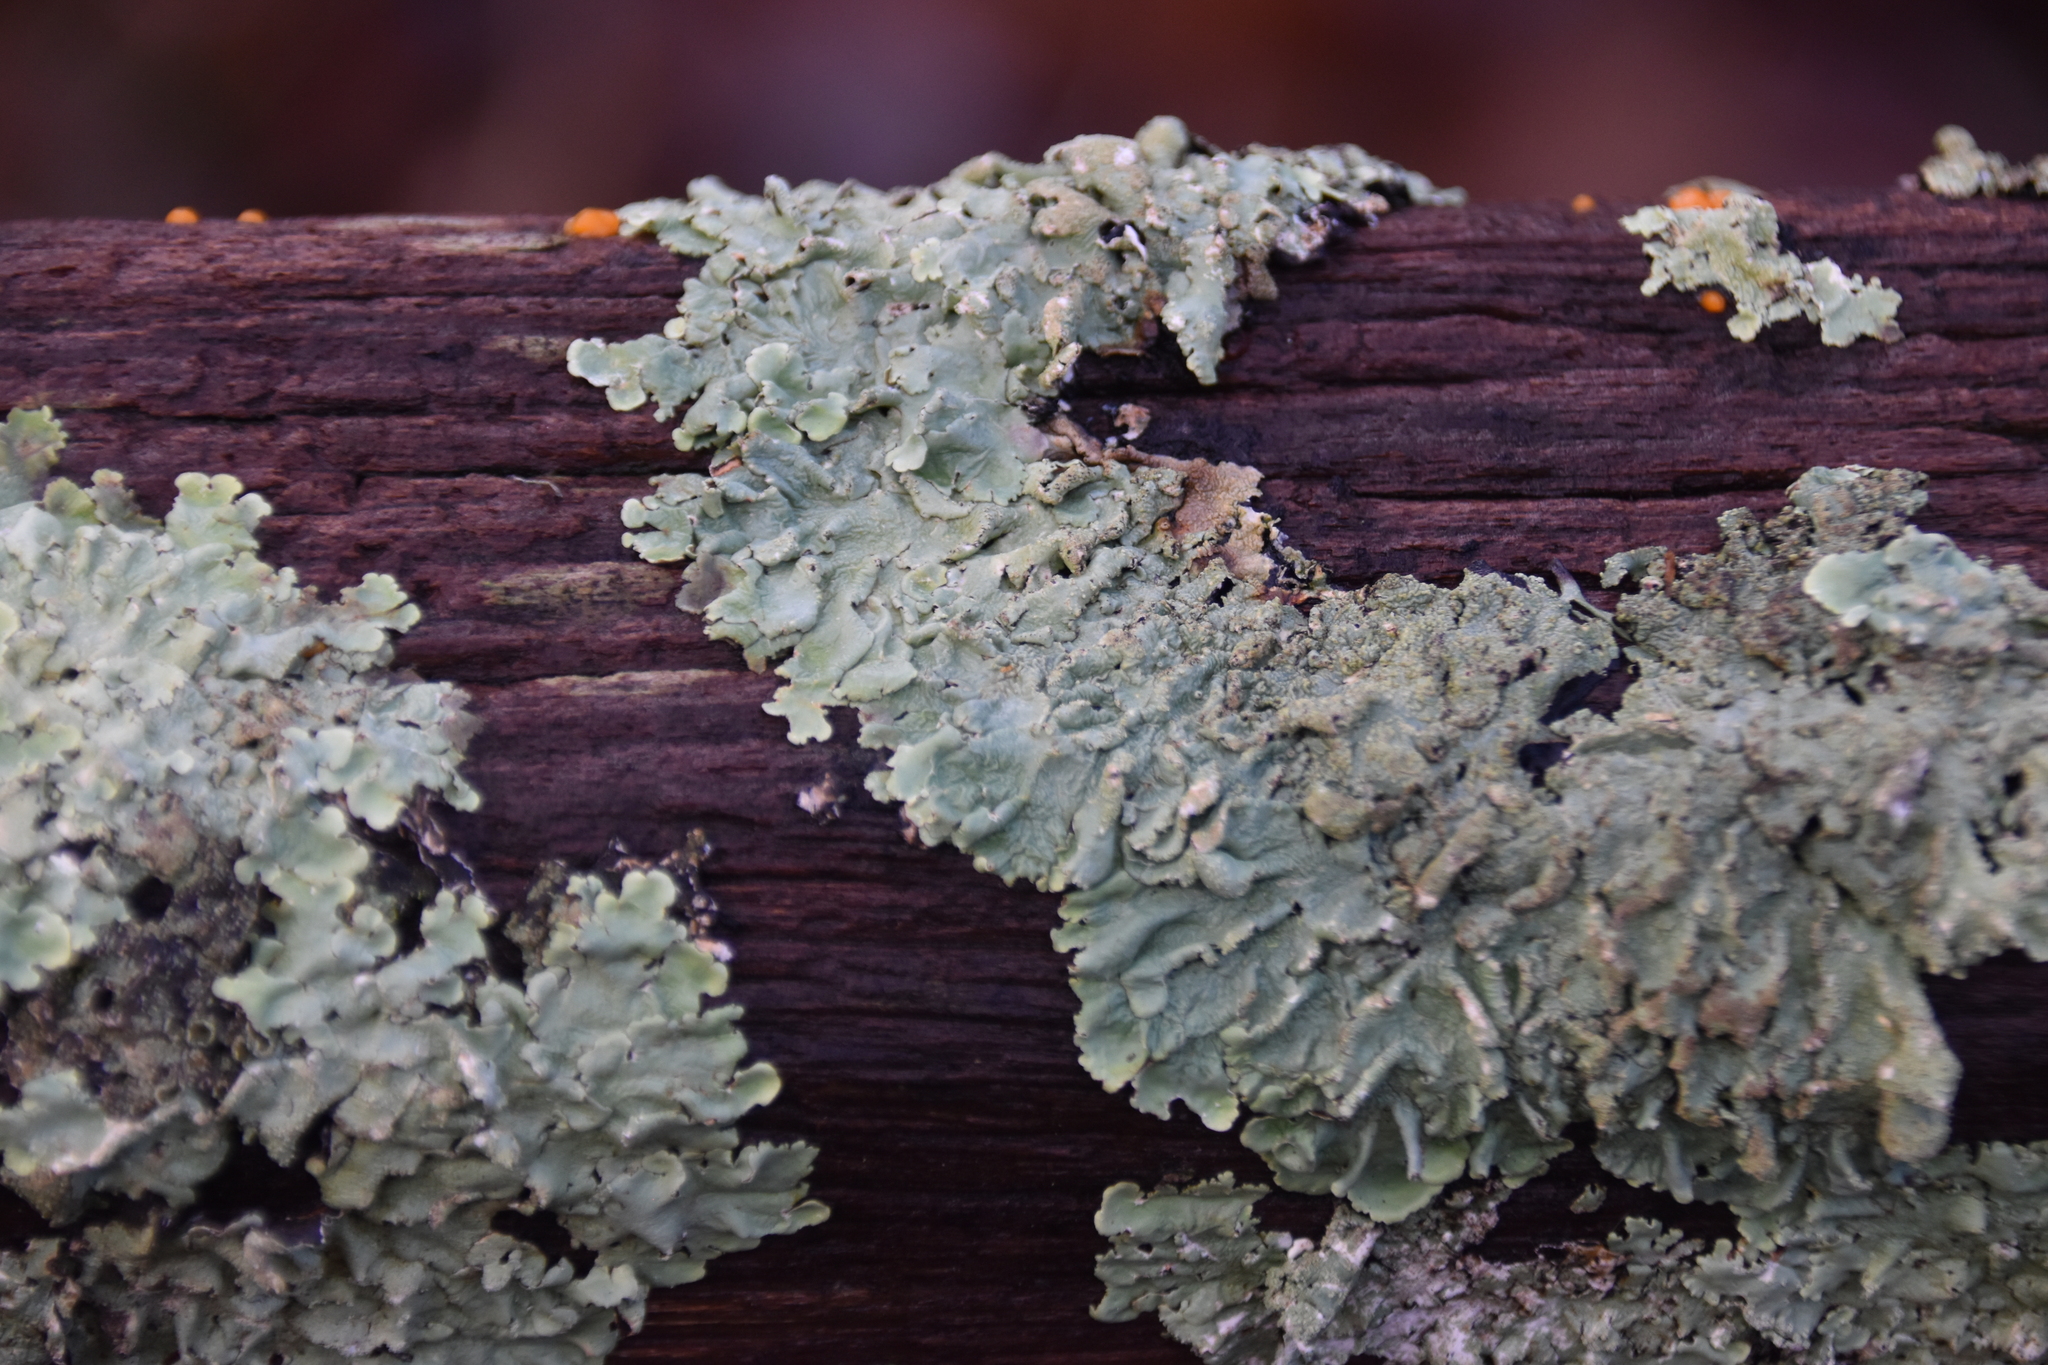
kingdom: Fungi
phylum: Ascomycota
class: Lecanoromycetes
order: Lecanorales
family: Parmeliaceae
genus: Flavoparmelia
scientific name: Flavoparmelia caperata
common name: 40-mile per hour lichen
